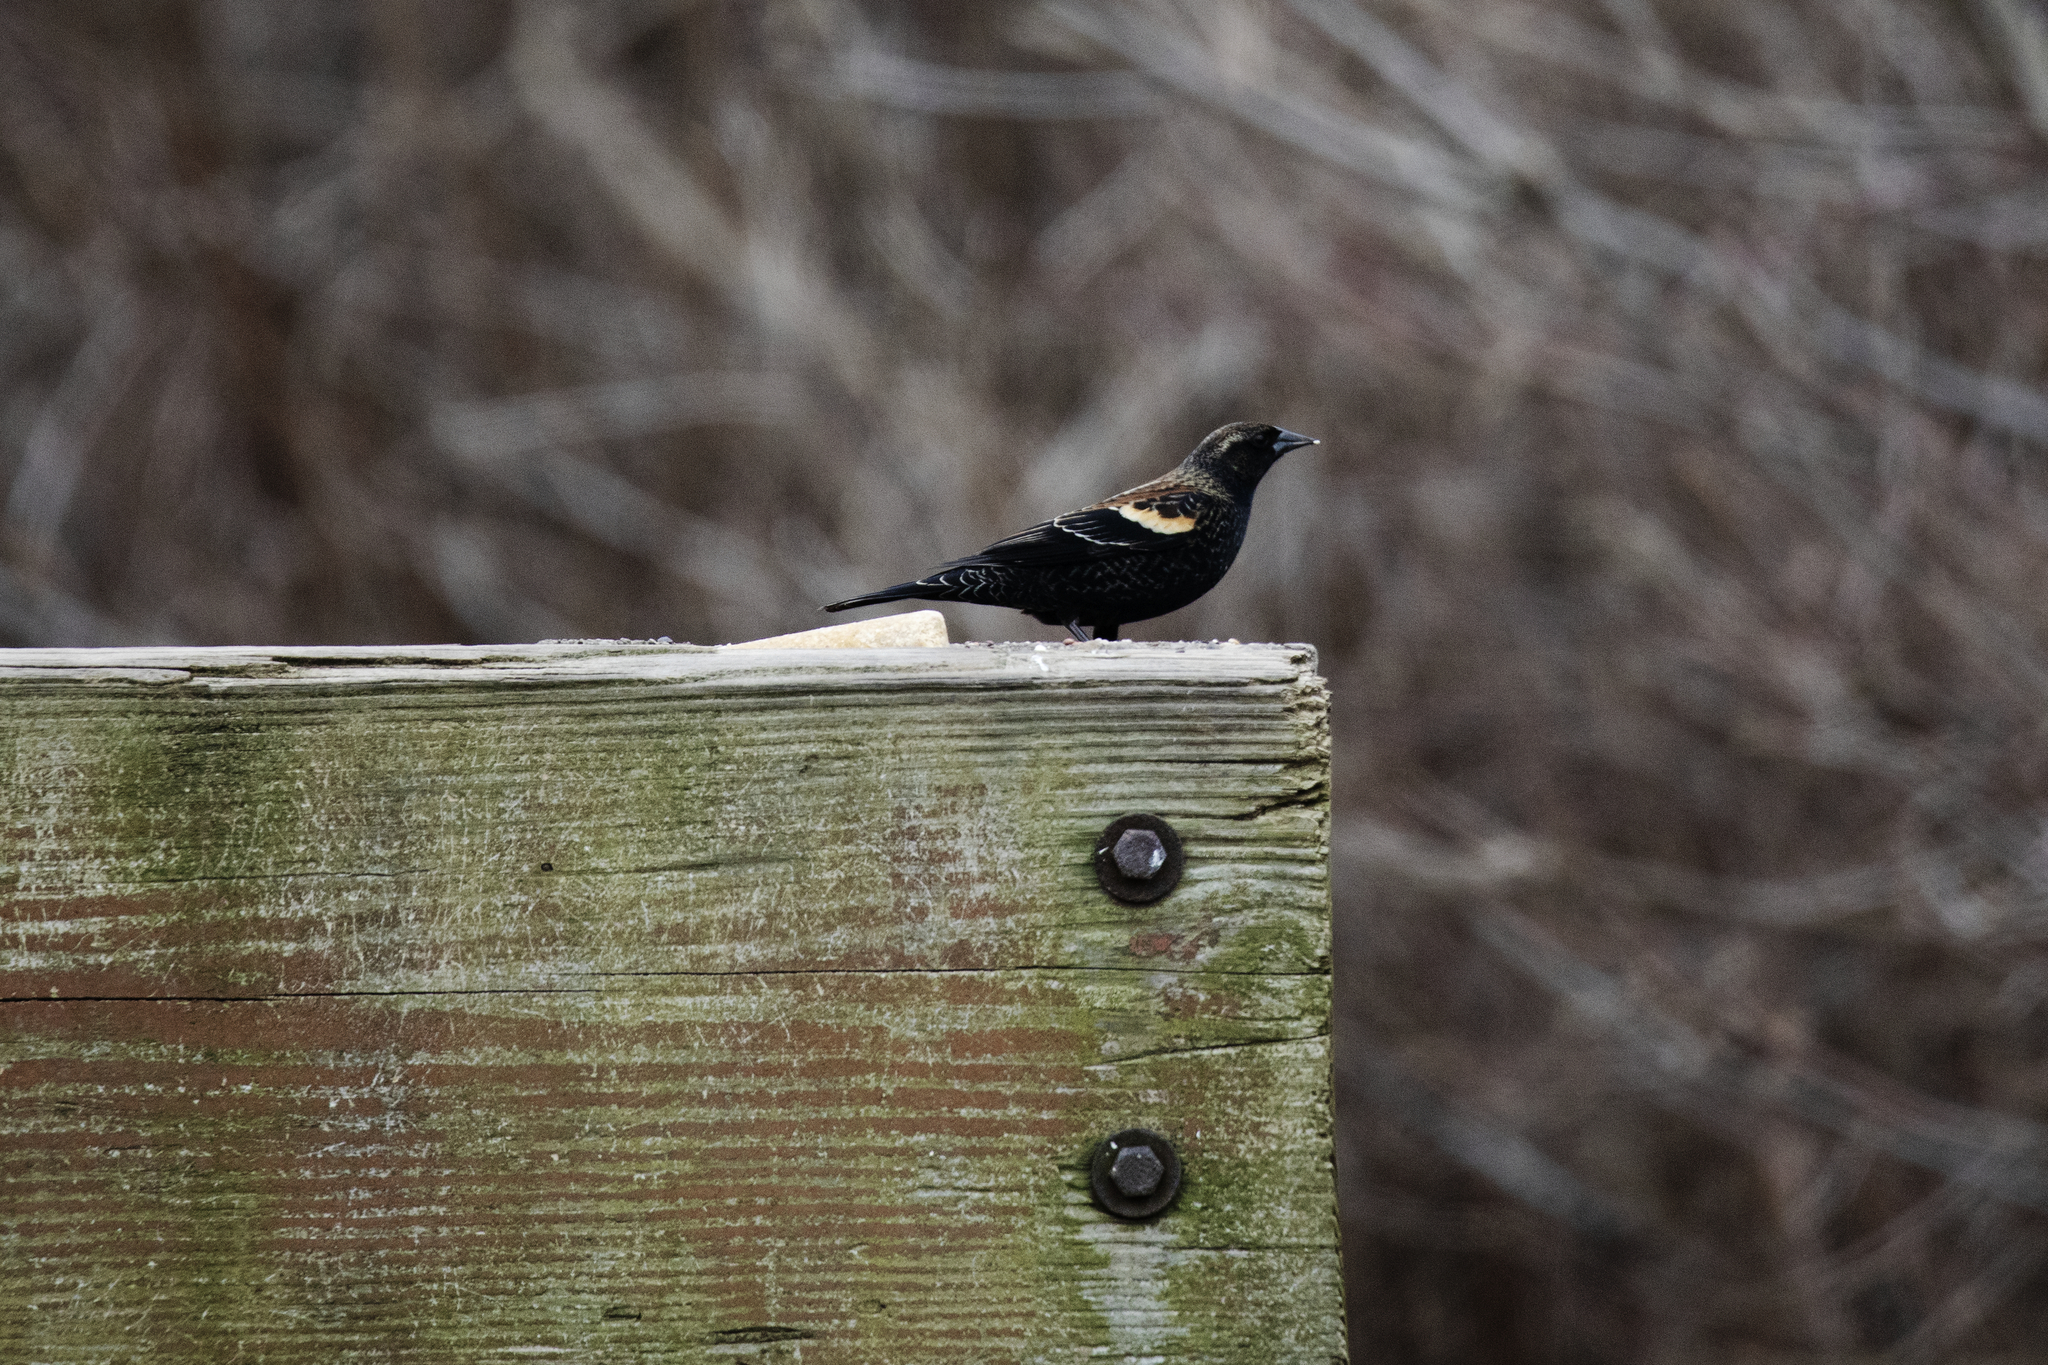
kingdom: Animalia
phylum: Chordata
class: Aves
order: Passeriformes
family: Icteridae
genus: Agelaius
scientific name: Agelaius phoeniceus
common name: Red-winged blackbird
